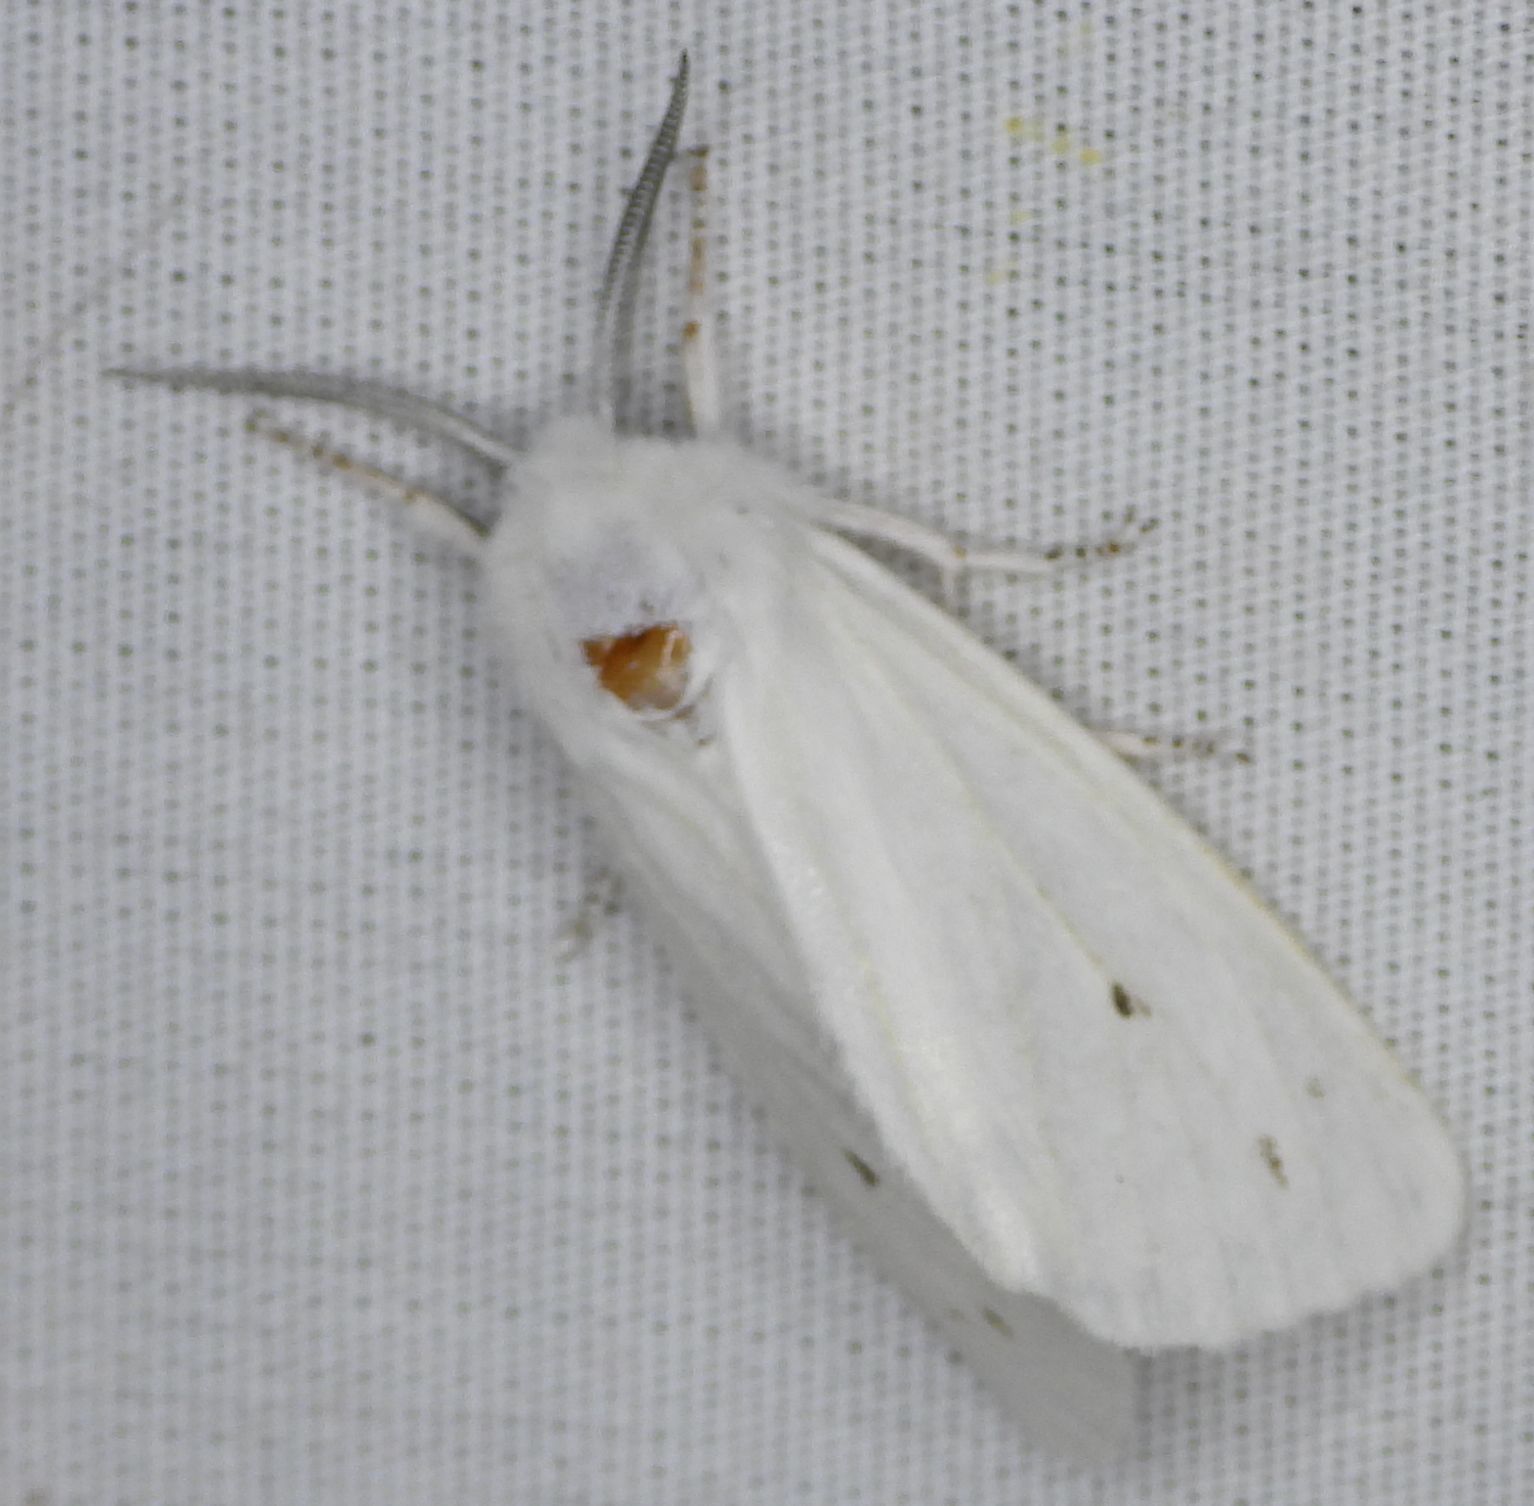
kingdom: Animalia
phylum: Arthropoda
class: Insecta
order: Lepidoptera
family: Erebidae
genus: Spilosoma
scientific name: Spilosoma virginica
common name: Virginia tiger moth
